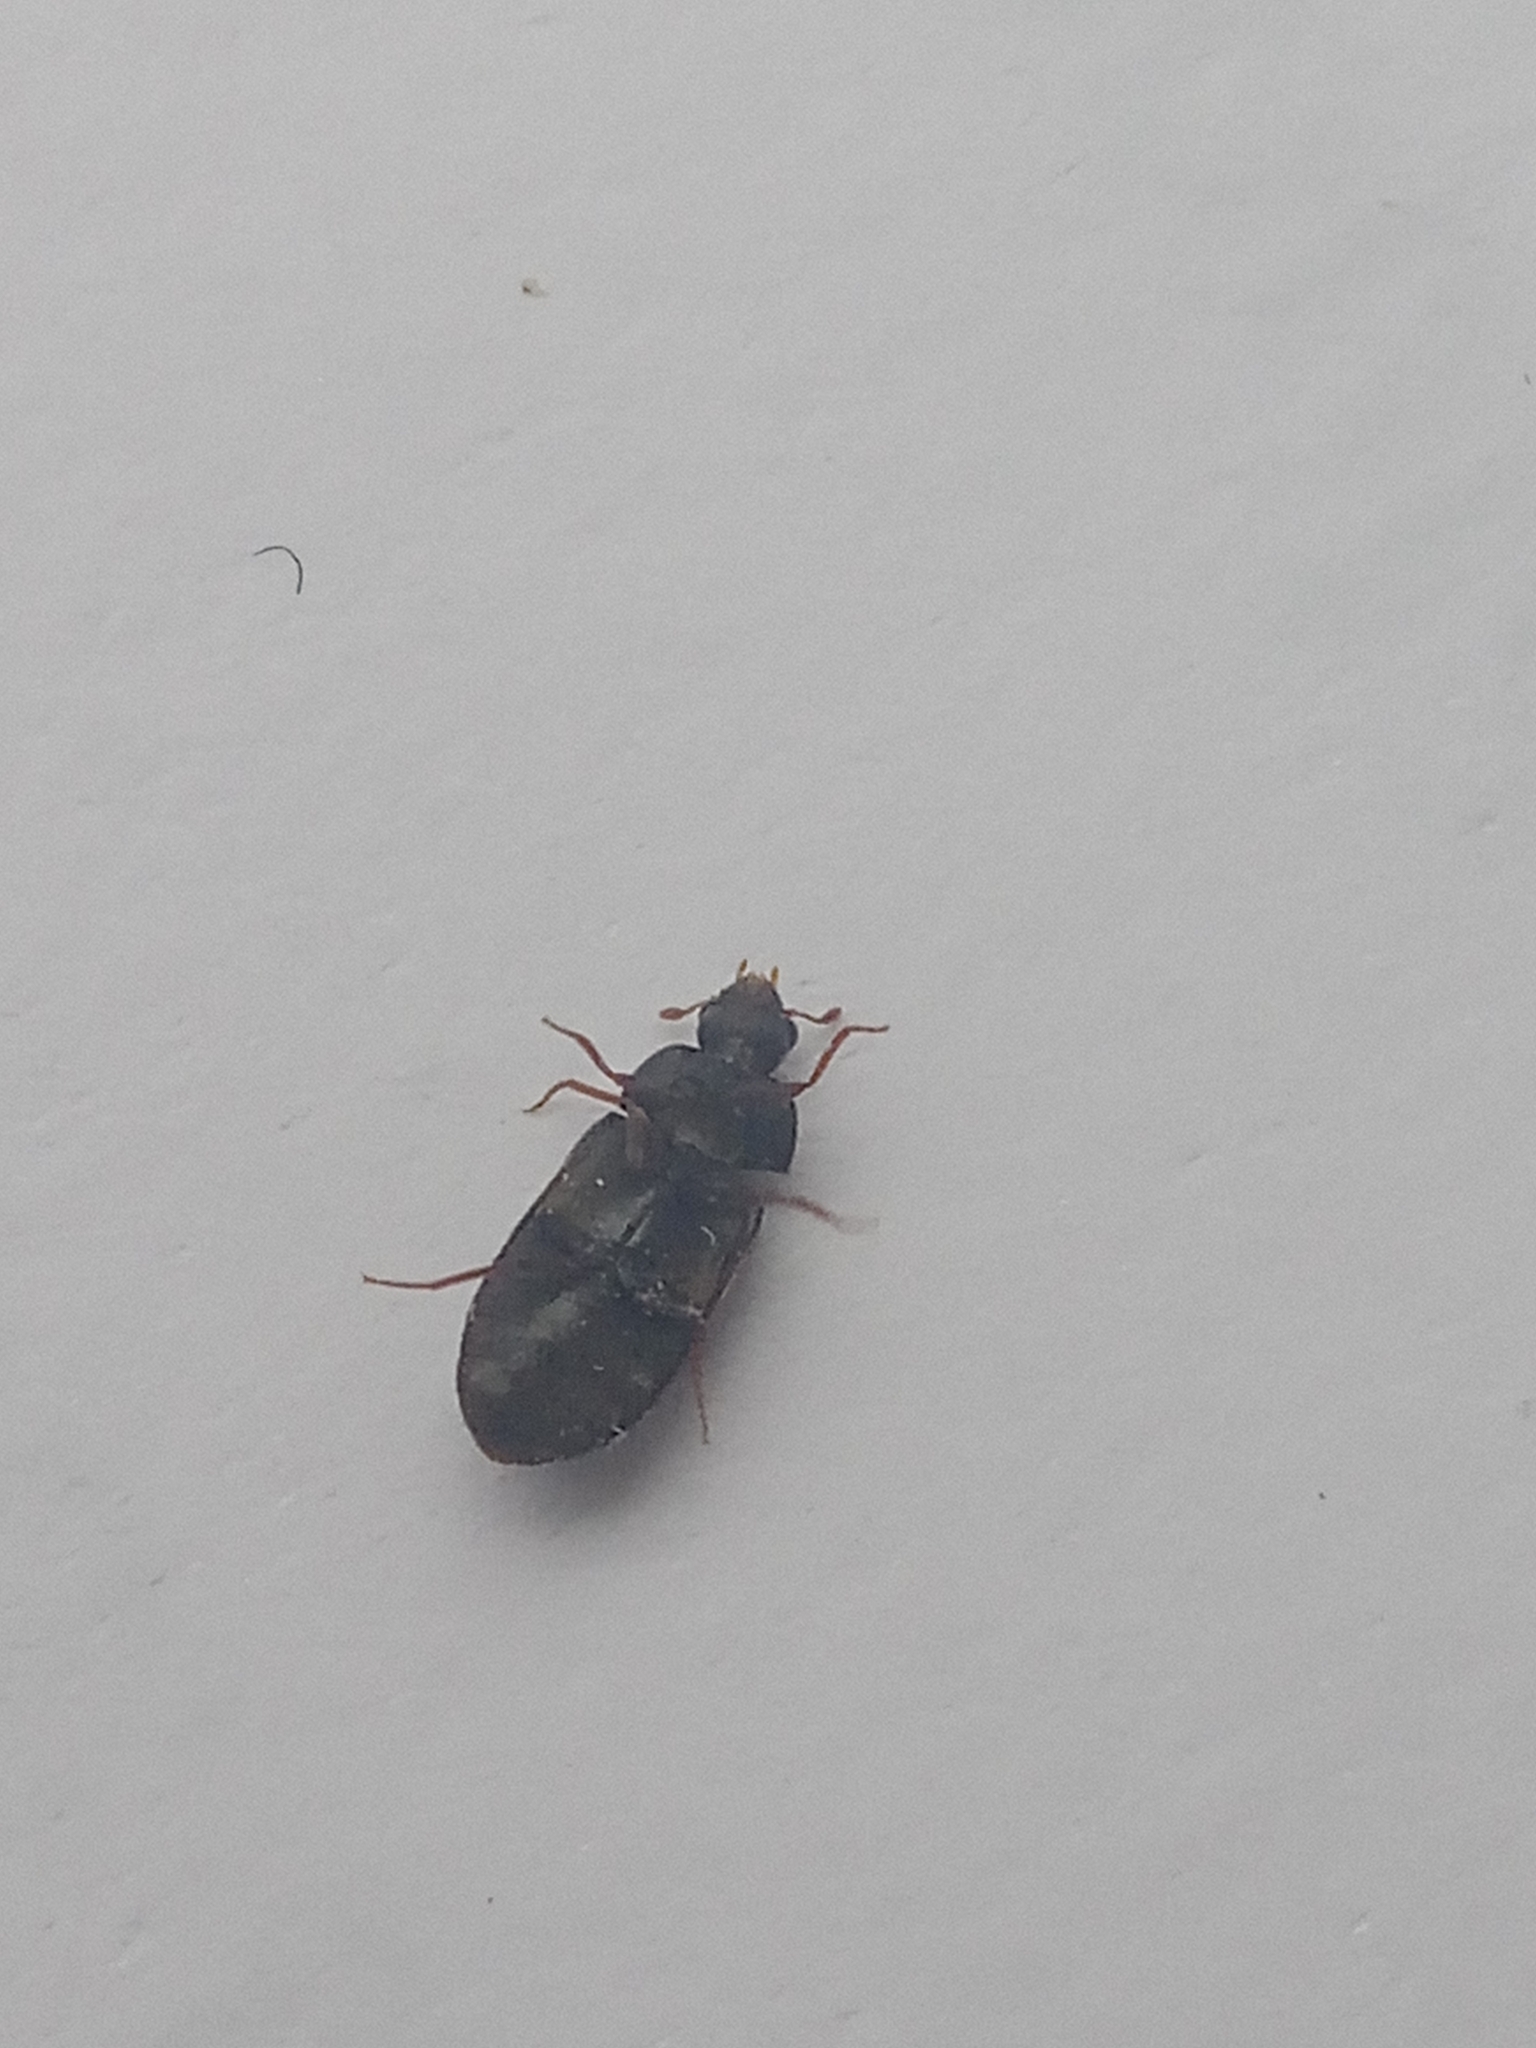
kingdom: Animalia
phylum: Arthropoda
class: Insecta
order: Coleoptera
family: Dermestidae
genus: Megatoma
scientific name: Megatoma tianschanica
